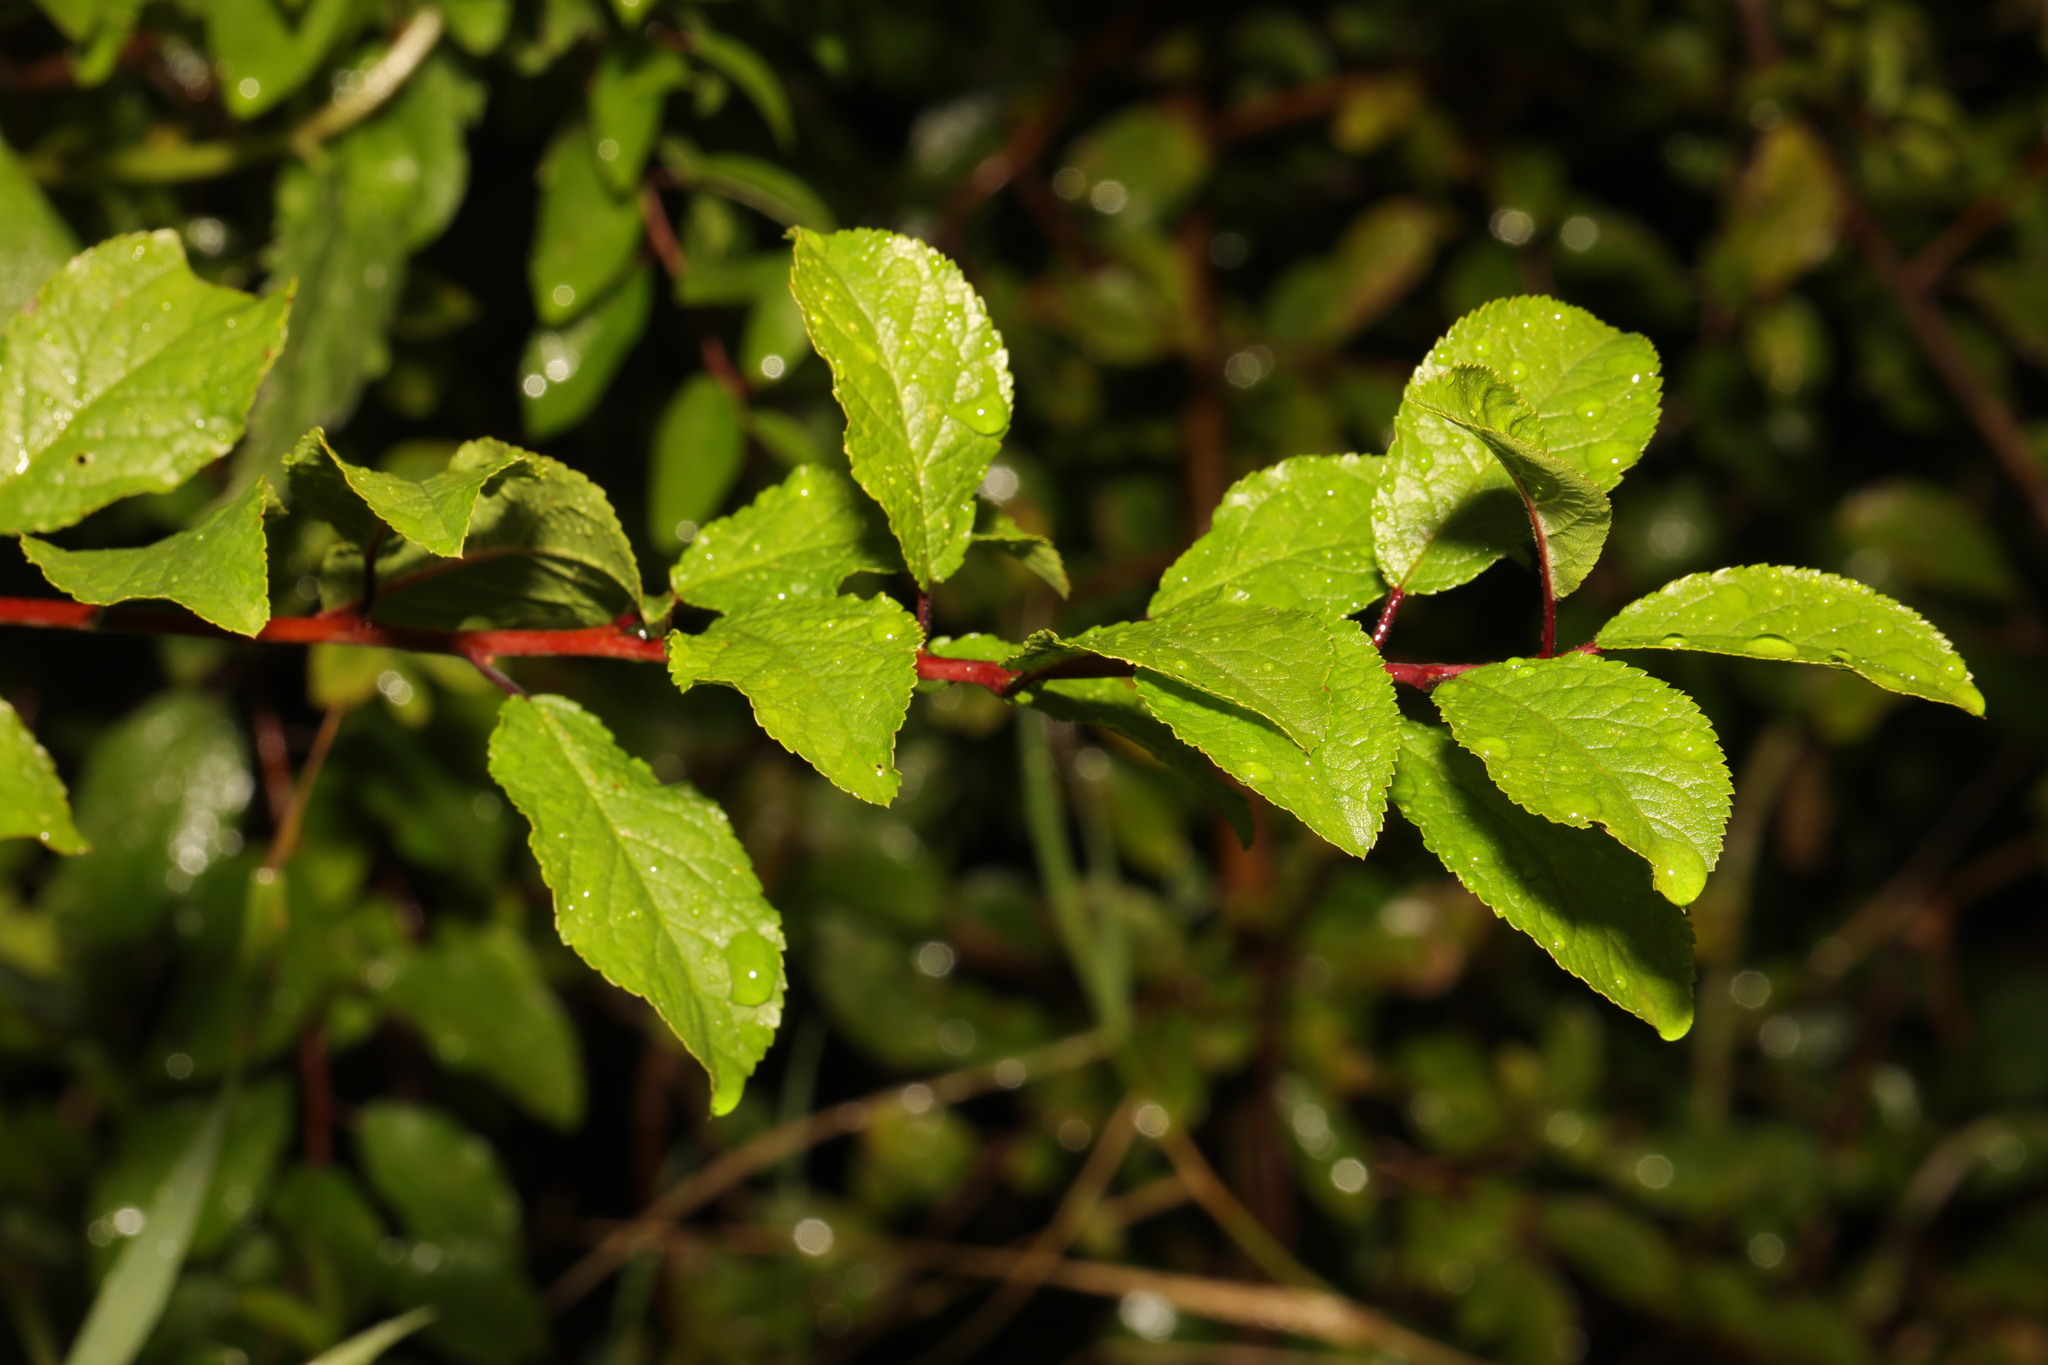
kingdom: Plantae
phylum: Tracheophyta
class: Magnoliopsida
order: Rosales
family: Rosaceae
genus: Prunus
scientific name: Prunus spinosa
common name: Blackthorn
